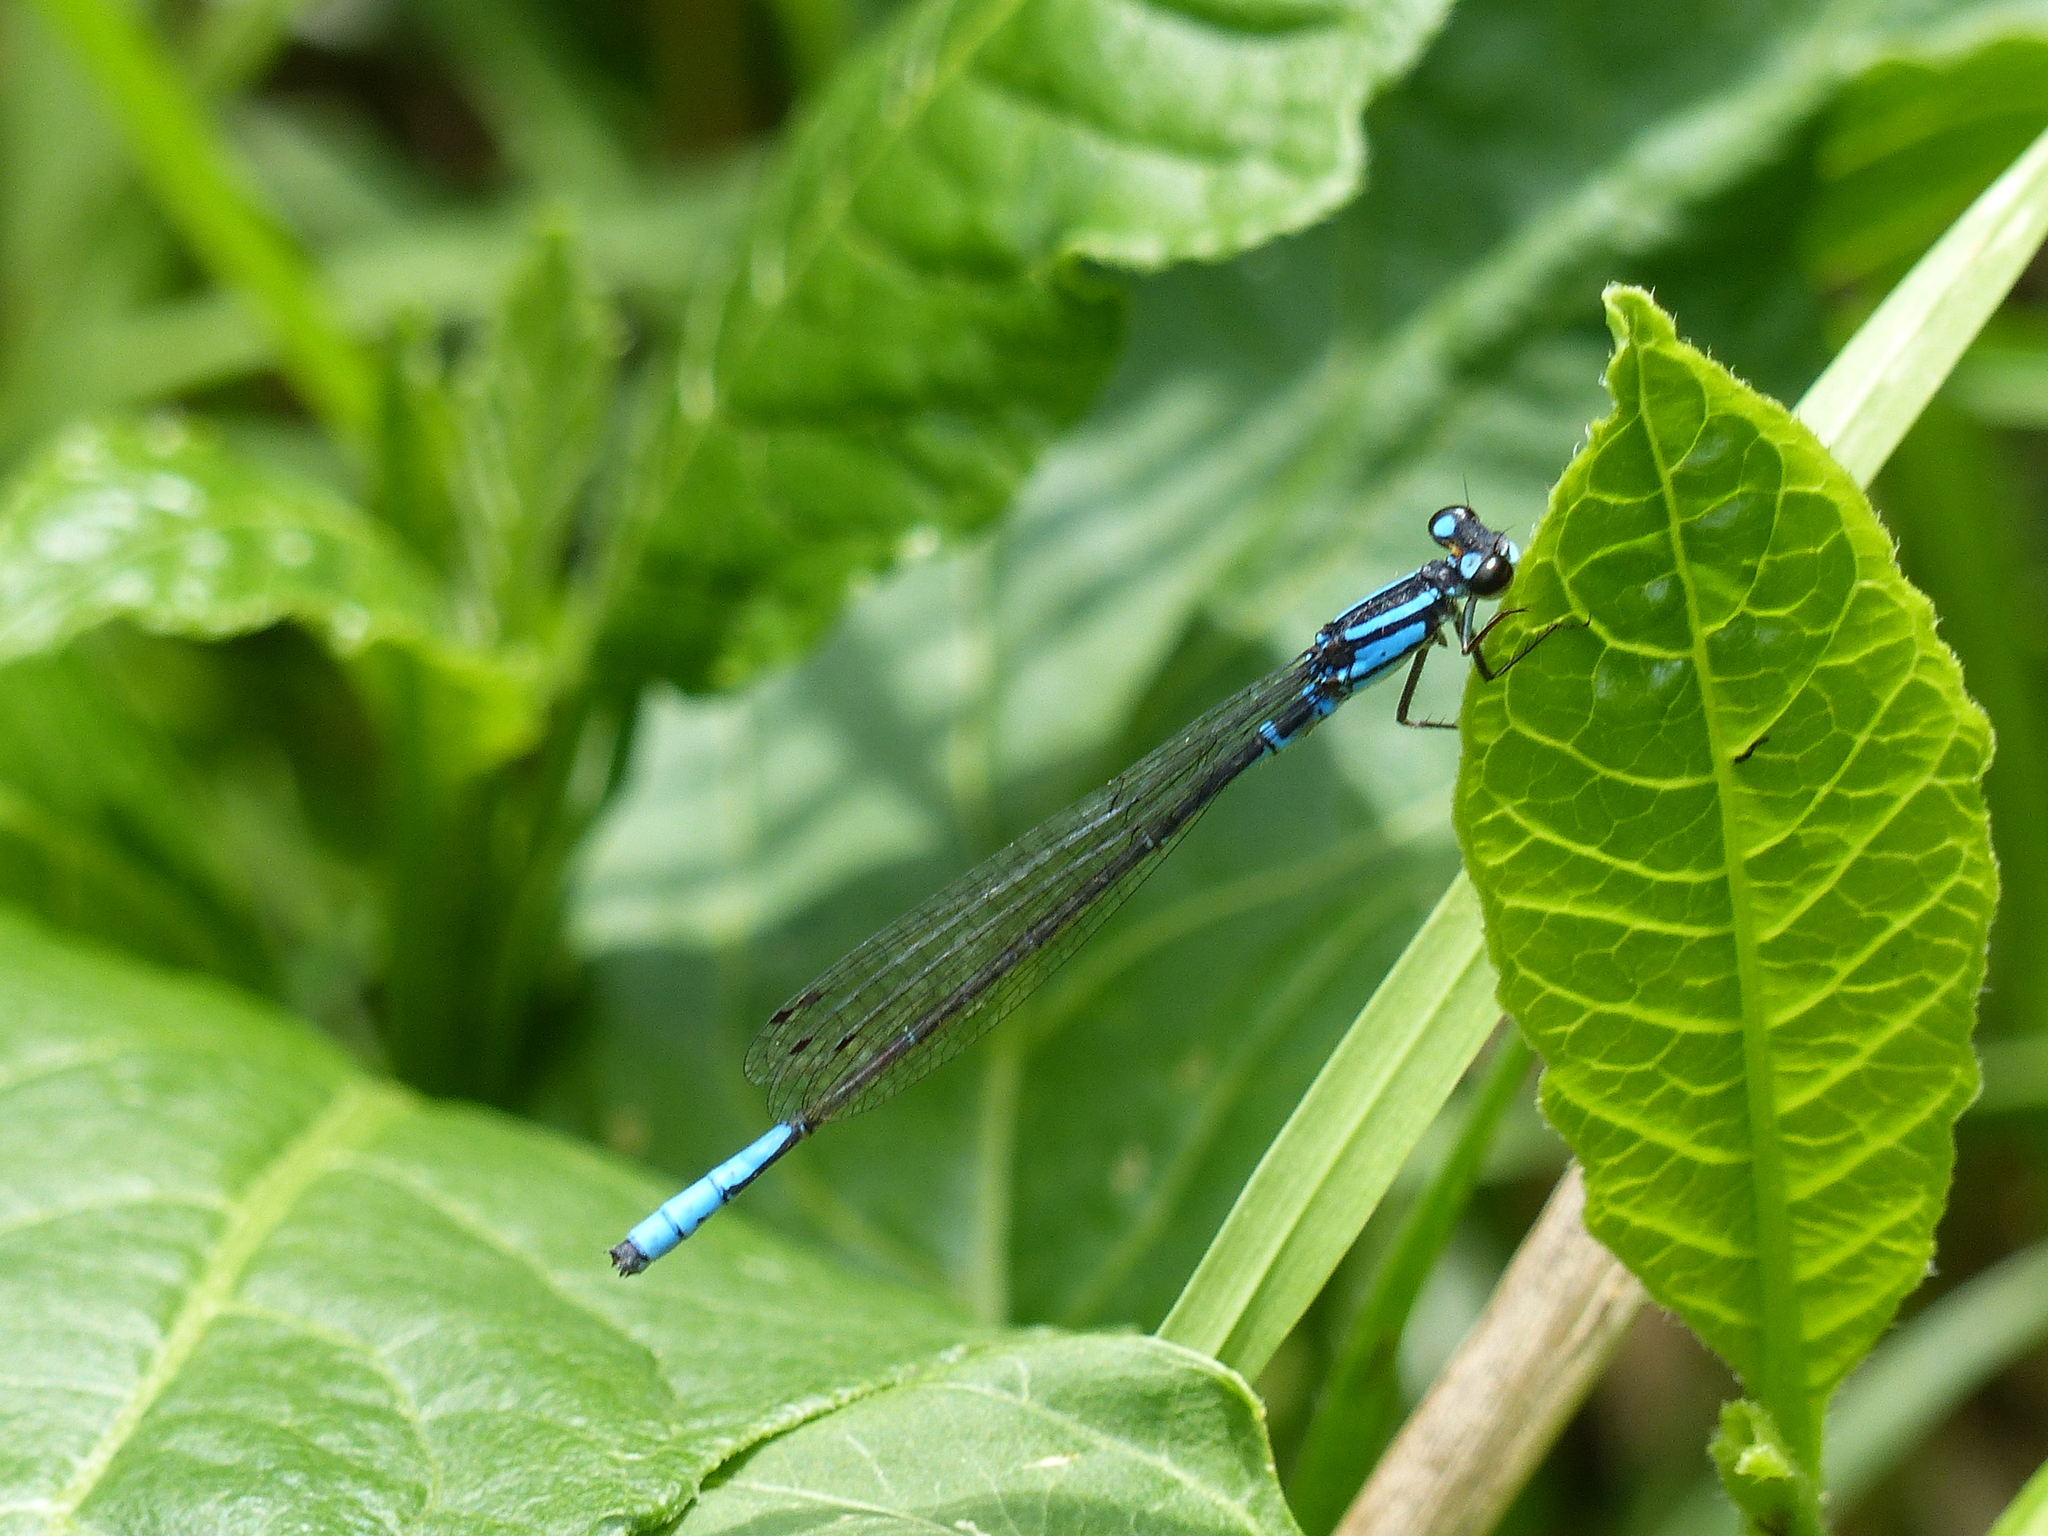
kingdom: Animalia
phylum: Arthropoda
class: Insecta
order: Odonata
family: Coenagrionidae
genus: Mesamphiagrion
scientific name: Mesamphiagrion laterale
